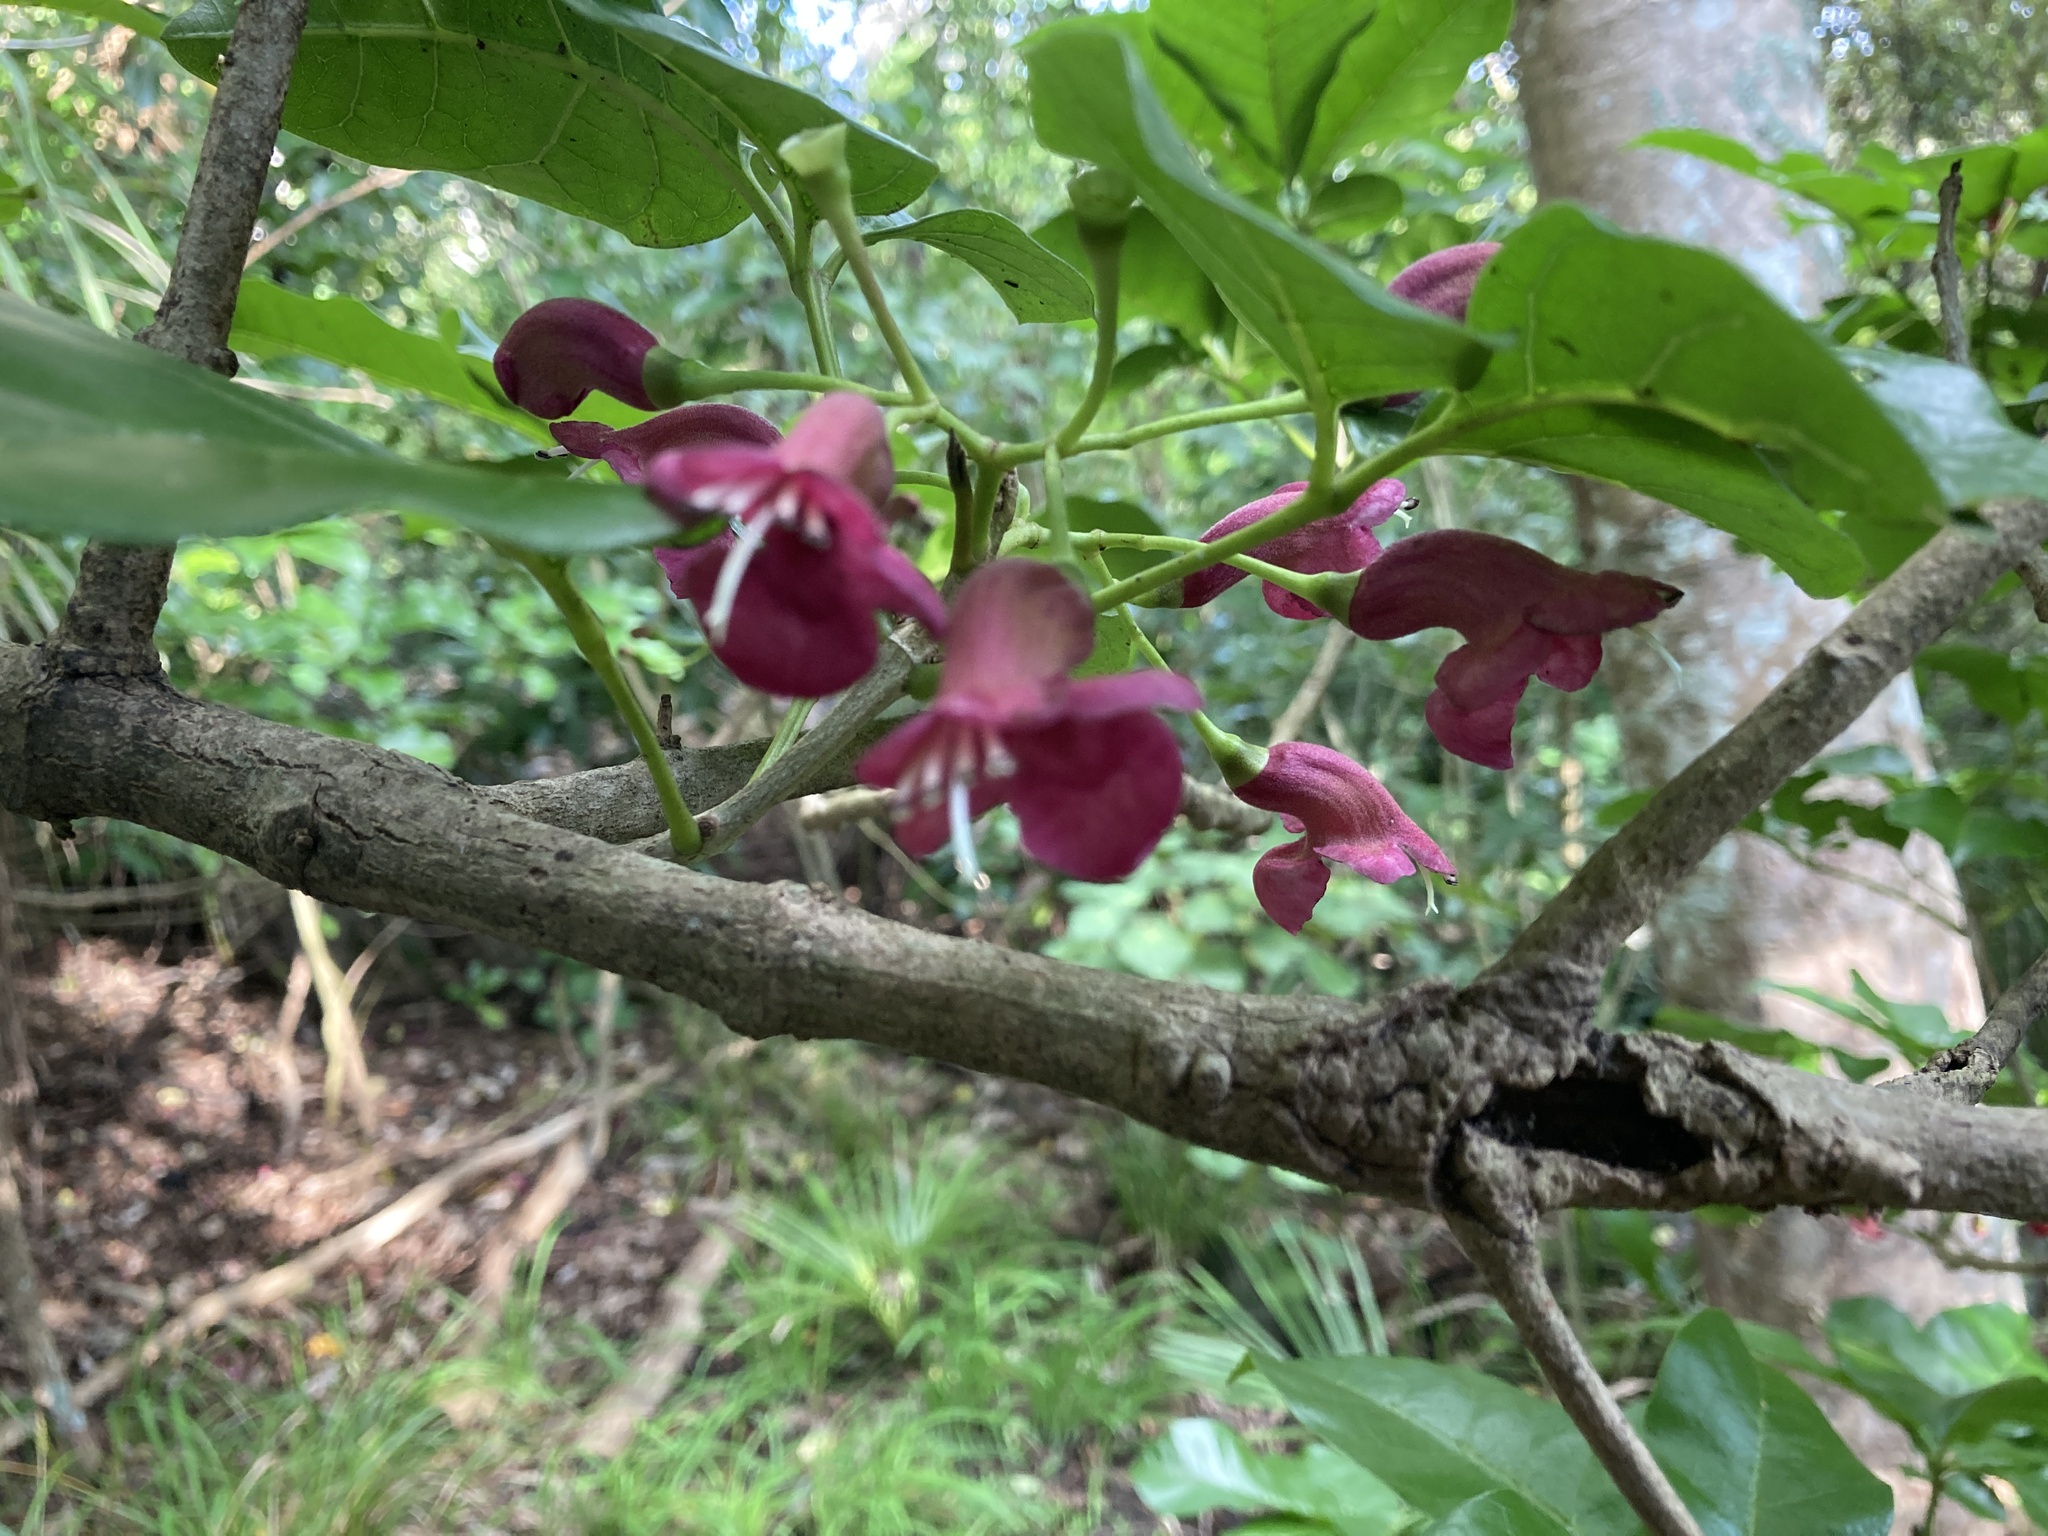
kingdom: Plantae
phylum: Tracheophyta
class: Magnoliopsida
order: Lamiales
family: Lamiaceae
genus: Vitex
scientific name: Vitex lucens
